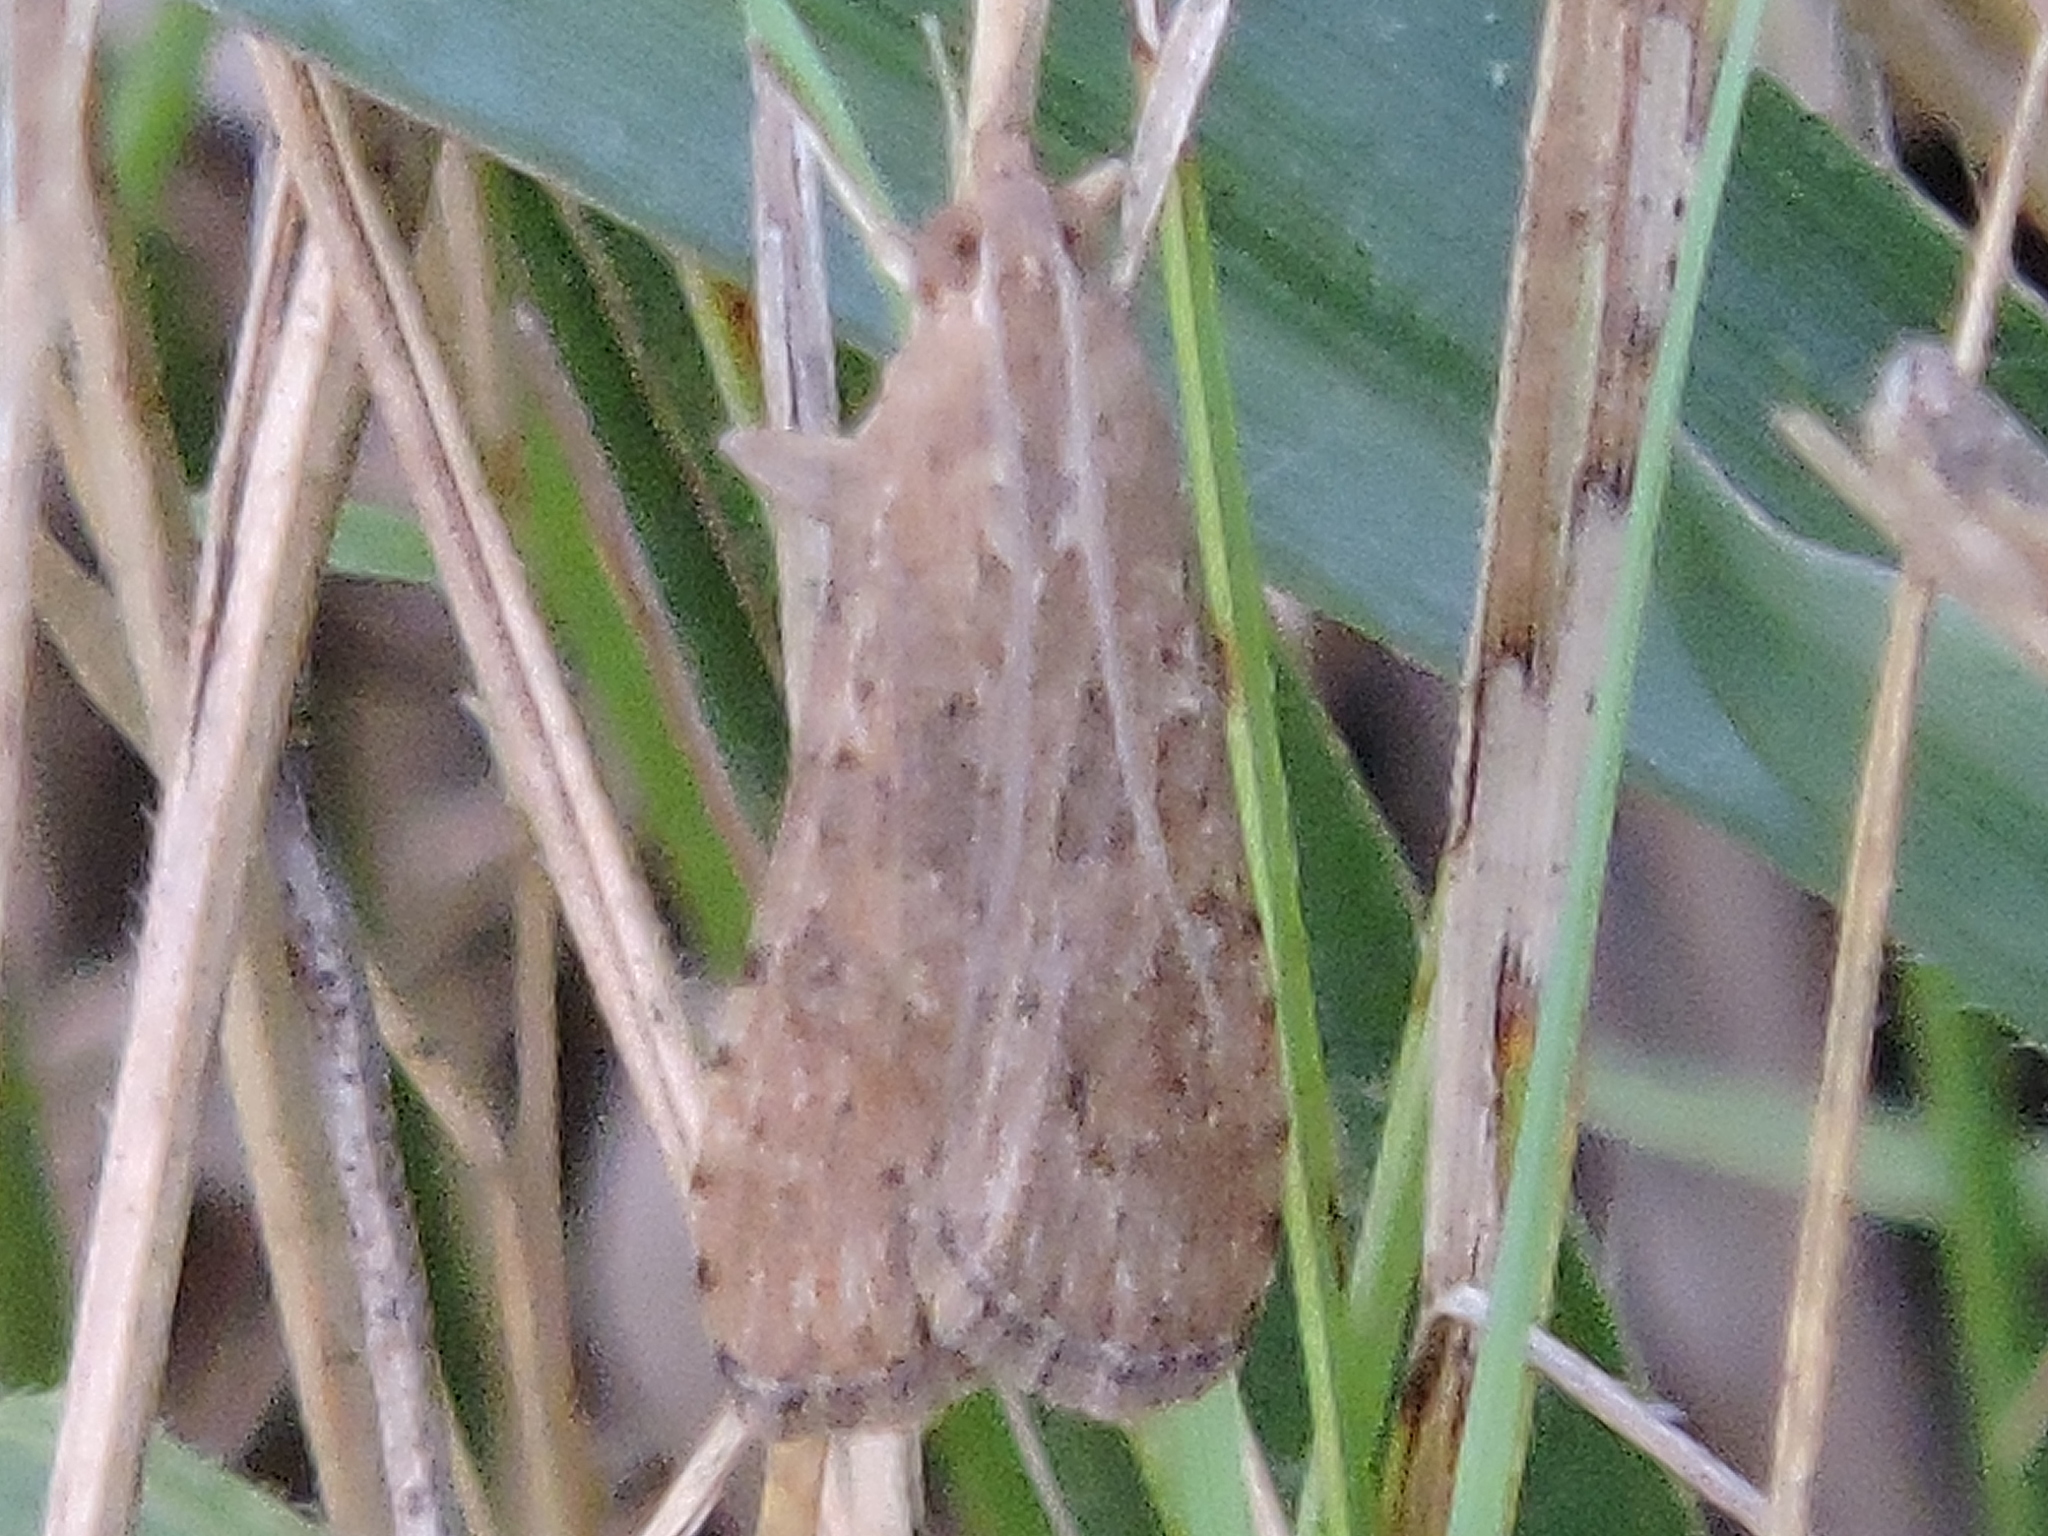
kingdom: Animalia
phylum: Arthropoda
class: Insecta
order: Lepidoptera
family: Crambidae
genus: Nomophila
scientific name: Nomophila nearctica
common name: American rush veneer
